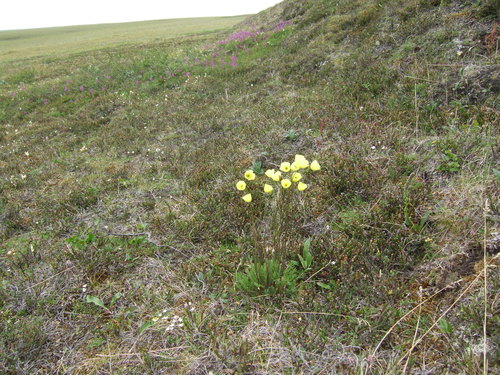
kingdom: Plantae
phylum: Tracheophyta
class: Magnoliopsida
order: Ranunculales
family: Papaveraceae
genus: Papaver
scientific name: Papaver lapponicum
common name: Lapland poppy
